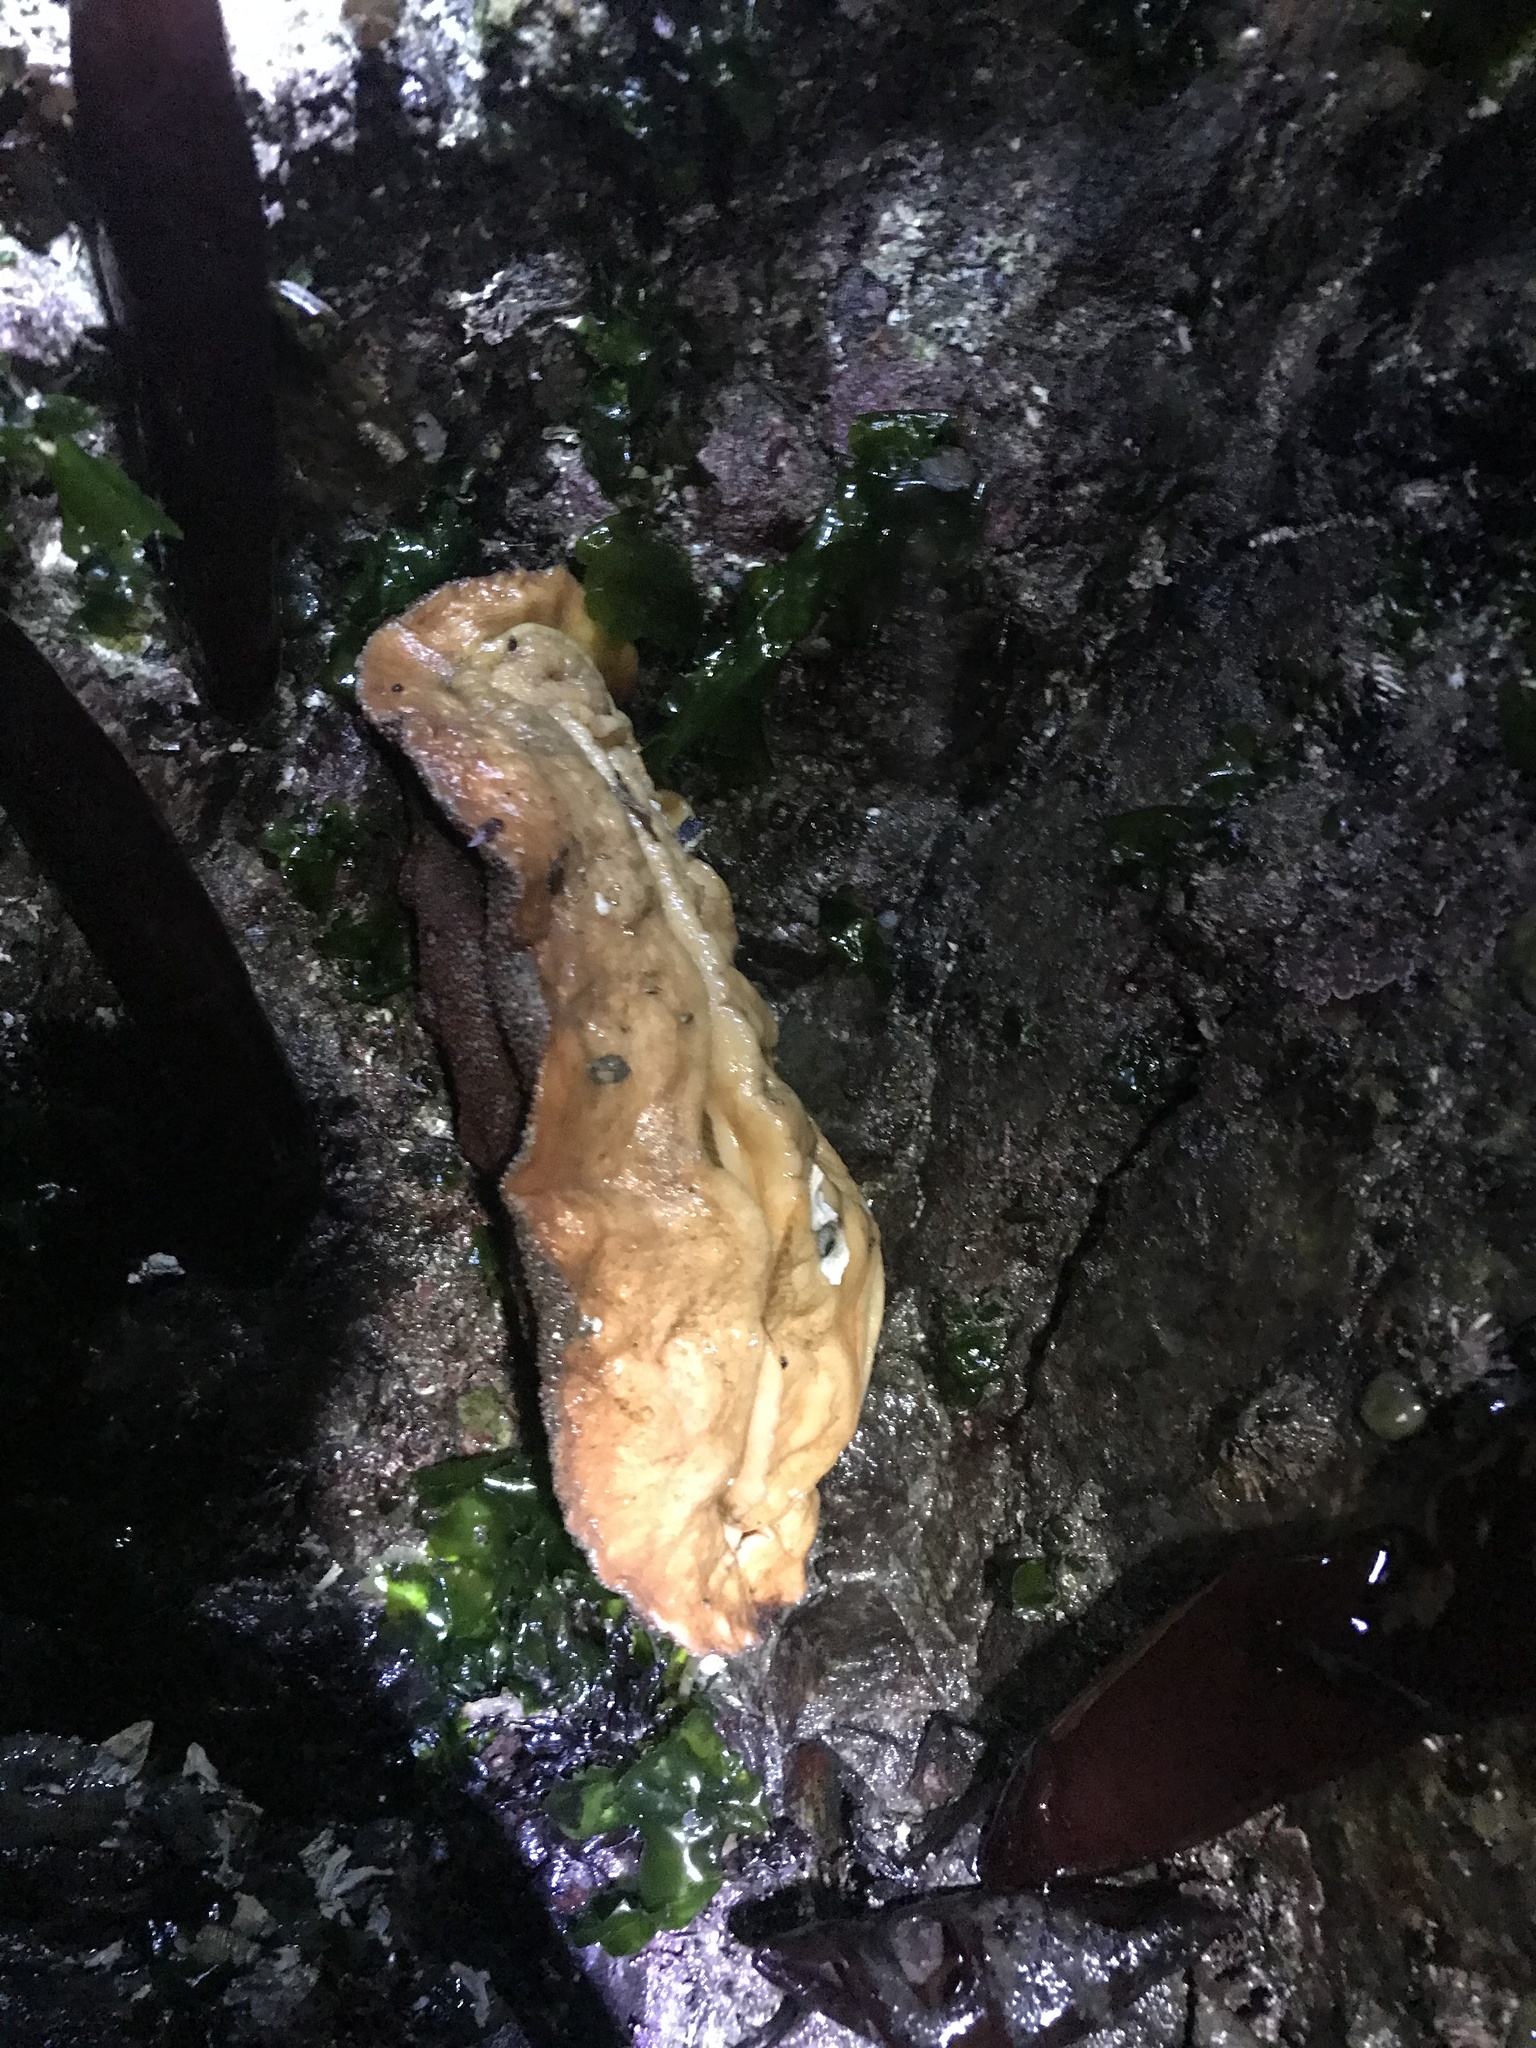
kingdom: Animalia
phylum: Mollusca
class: Polyplacophora
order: Chitonida
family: Acanthochitonidae
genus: Cryptochiton
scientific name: Cryptochiton stelleri
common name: Giant pacific chiton
